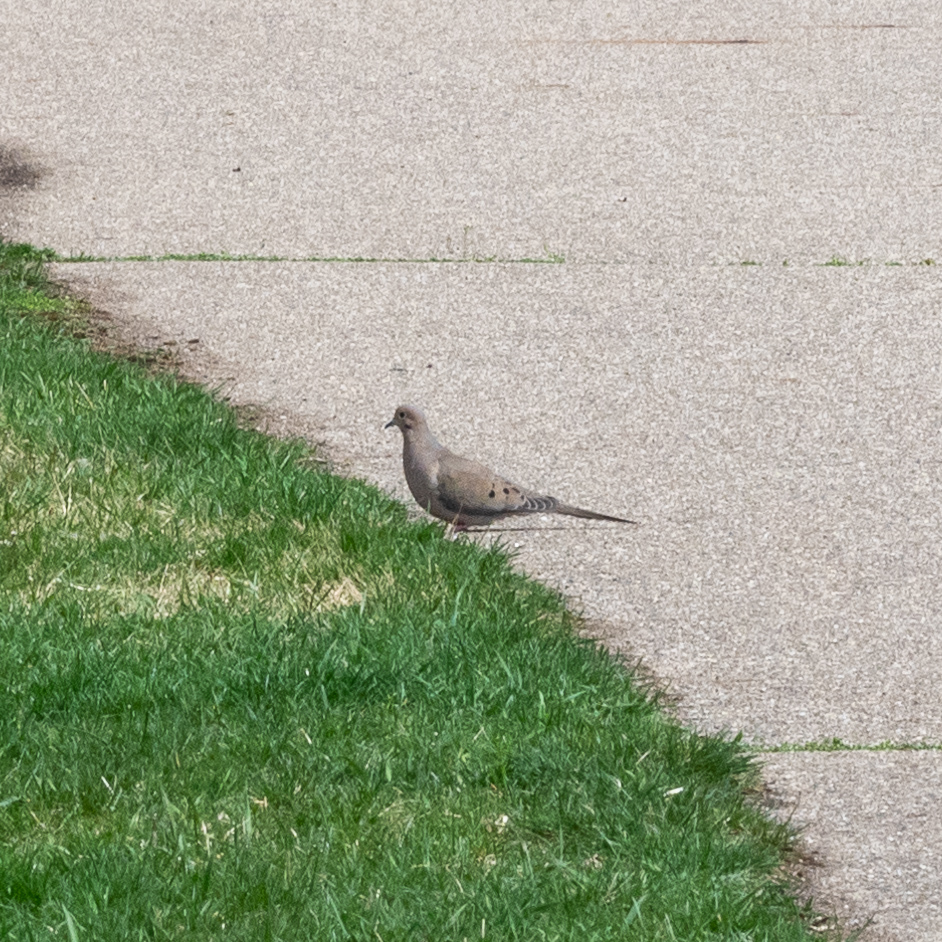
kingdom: Animalia
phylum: Chordata
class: Aves
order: Columbiformes
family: Columbidae
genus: Zenaida
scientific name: Zenaida macroura
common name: Mourning dove
